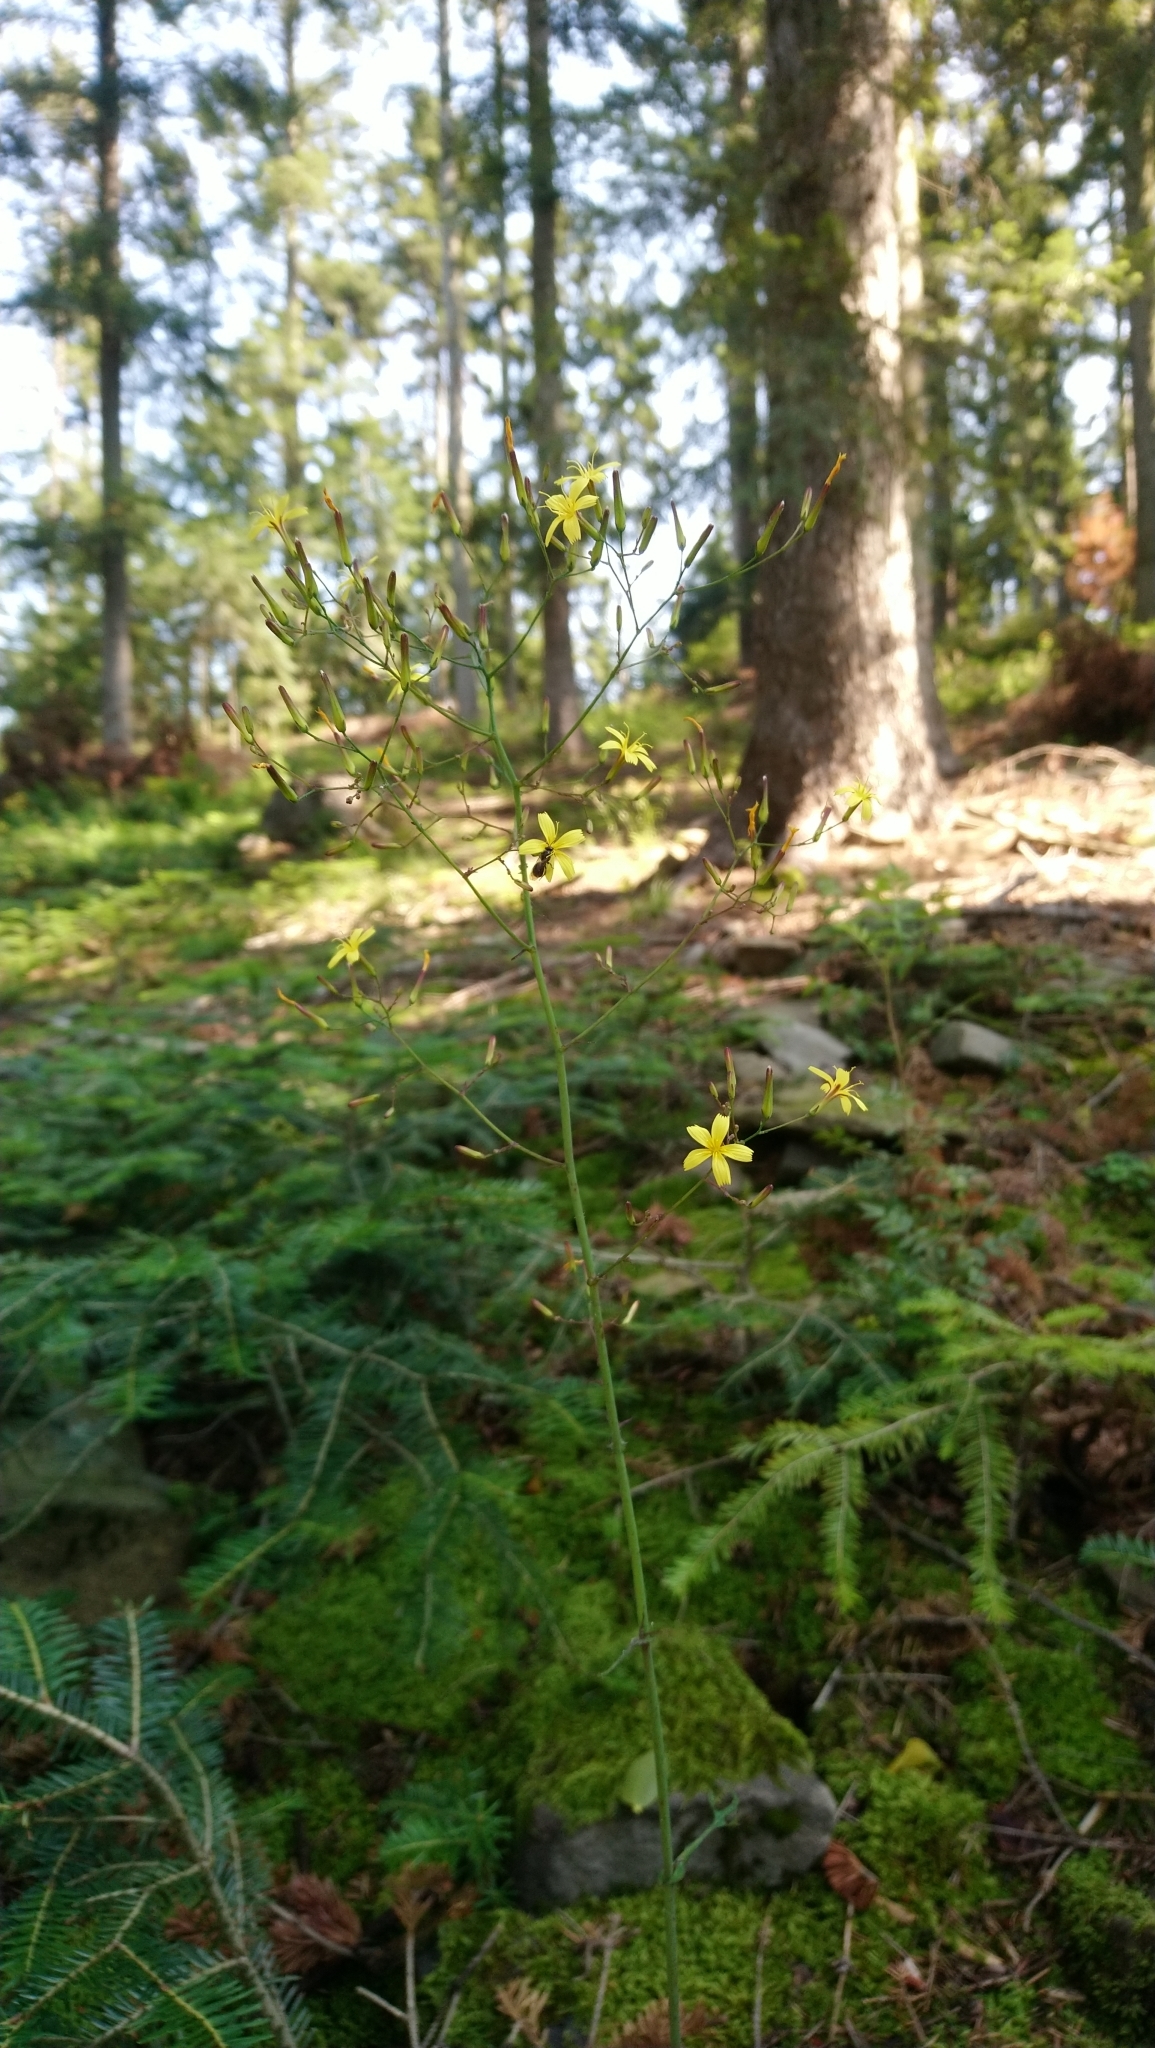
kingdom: Plantae
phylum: Tracheophyta
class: Magnoliopsida
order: Asterales
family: Asteraceae
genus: Mycelis
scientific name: Mycelis muralis
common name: Wall lettuce
